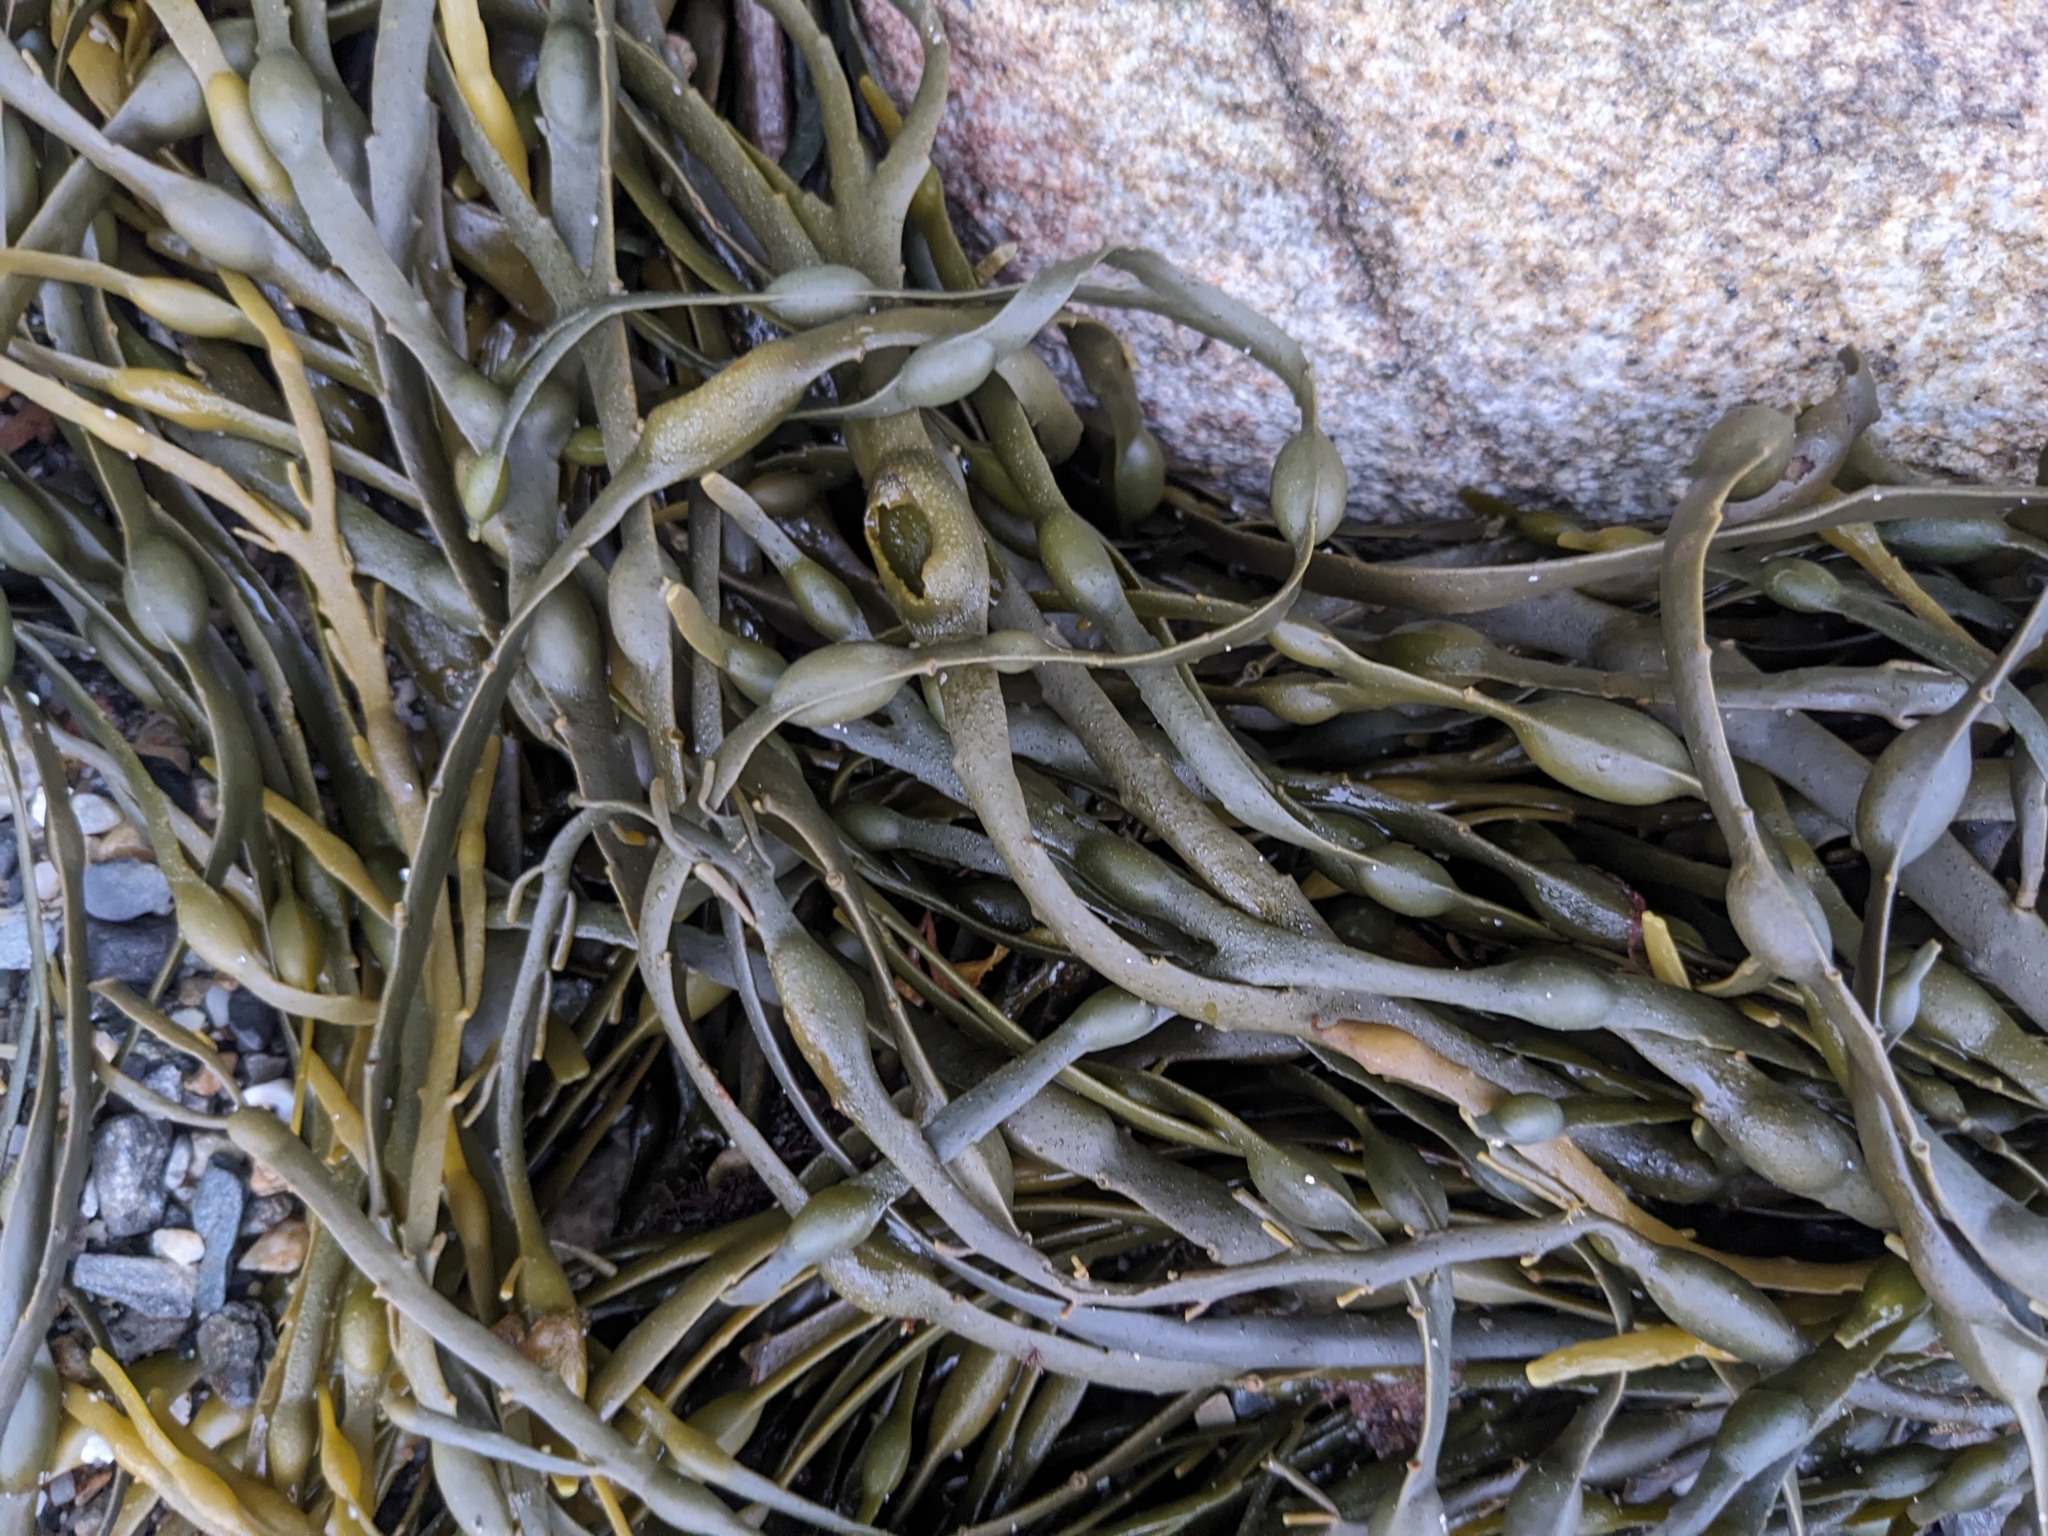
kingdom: Chromista
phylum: Ochrophyta
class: Phaeophyceae
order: Fucales
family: Fucaceae
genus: Ascophyllum
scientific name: Ascophyllum nodosum
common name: Knotted wrack
